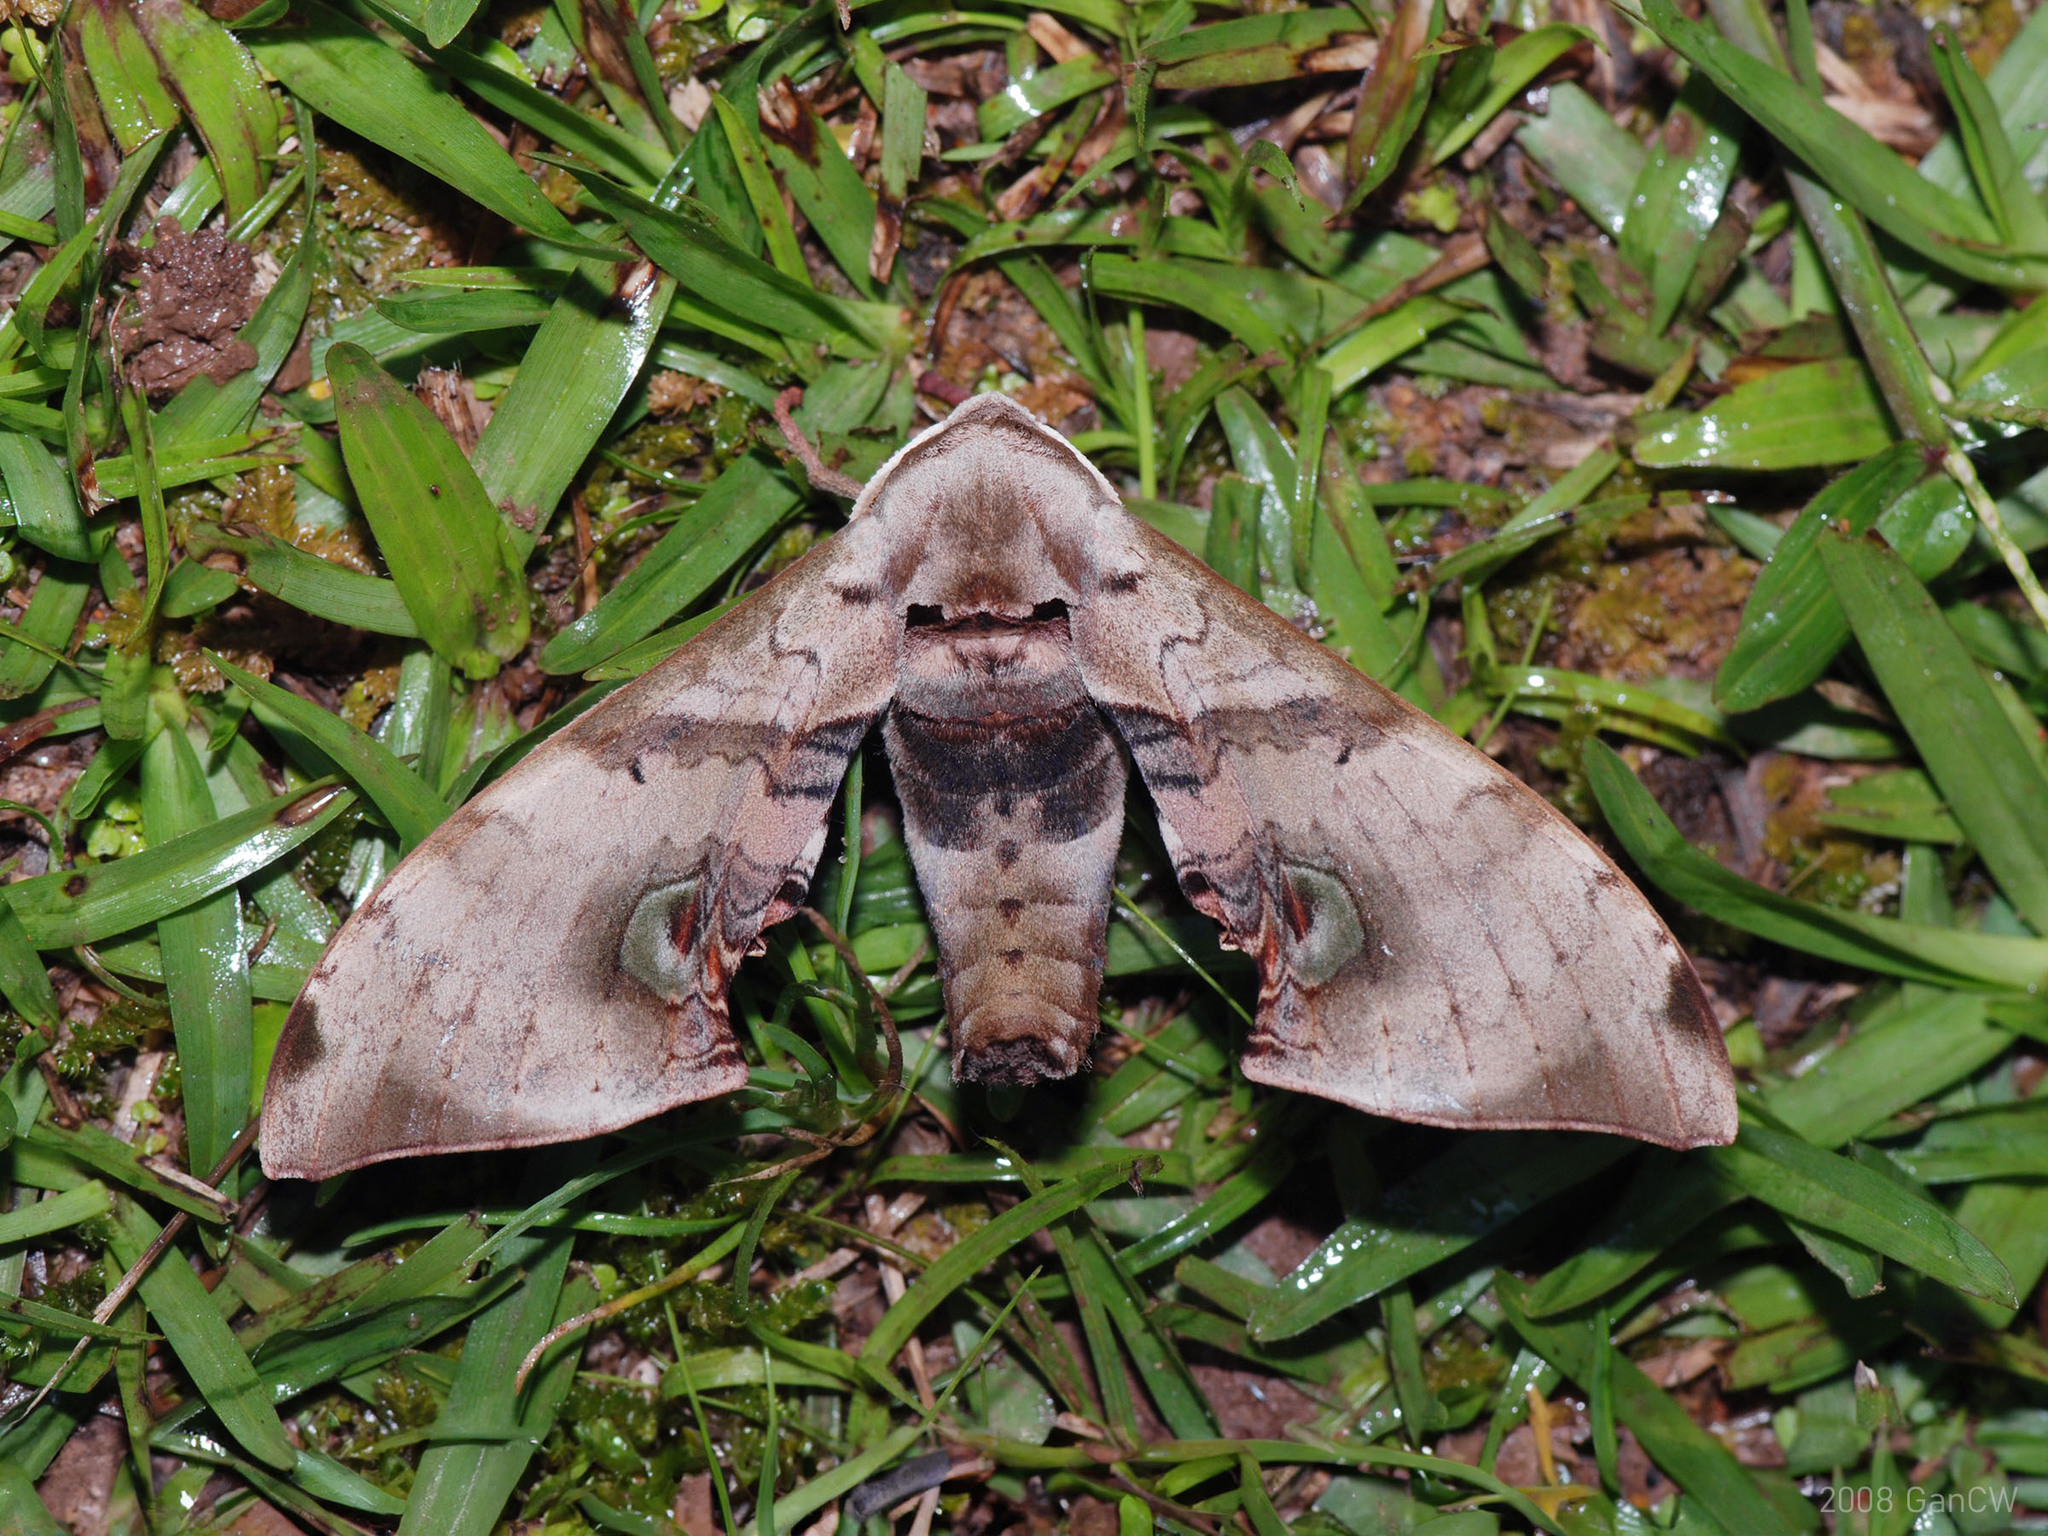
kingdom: Animalia
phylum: Arthropoda
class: Insecta
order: Lepidoptera
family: Sphingidae
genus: Daphnusa
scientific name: Daphnusa ocellaris
